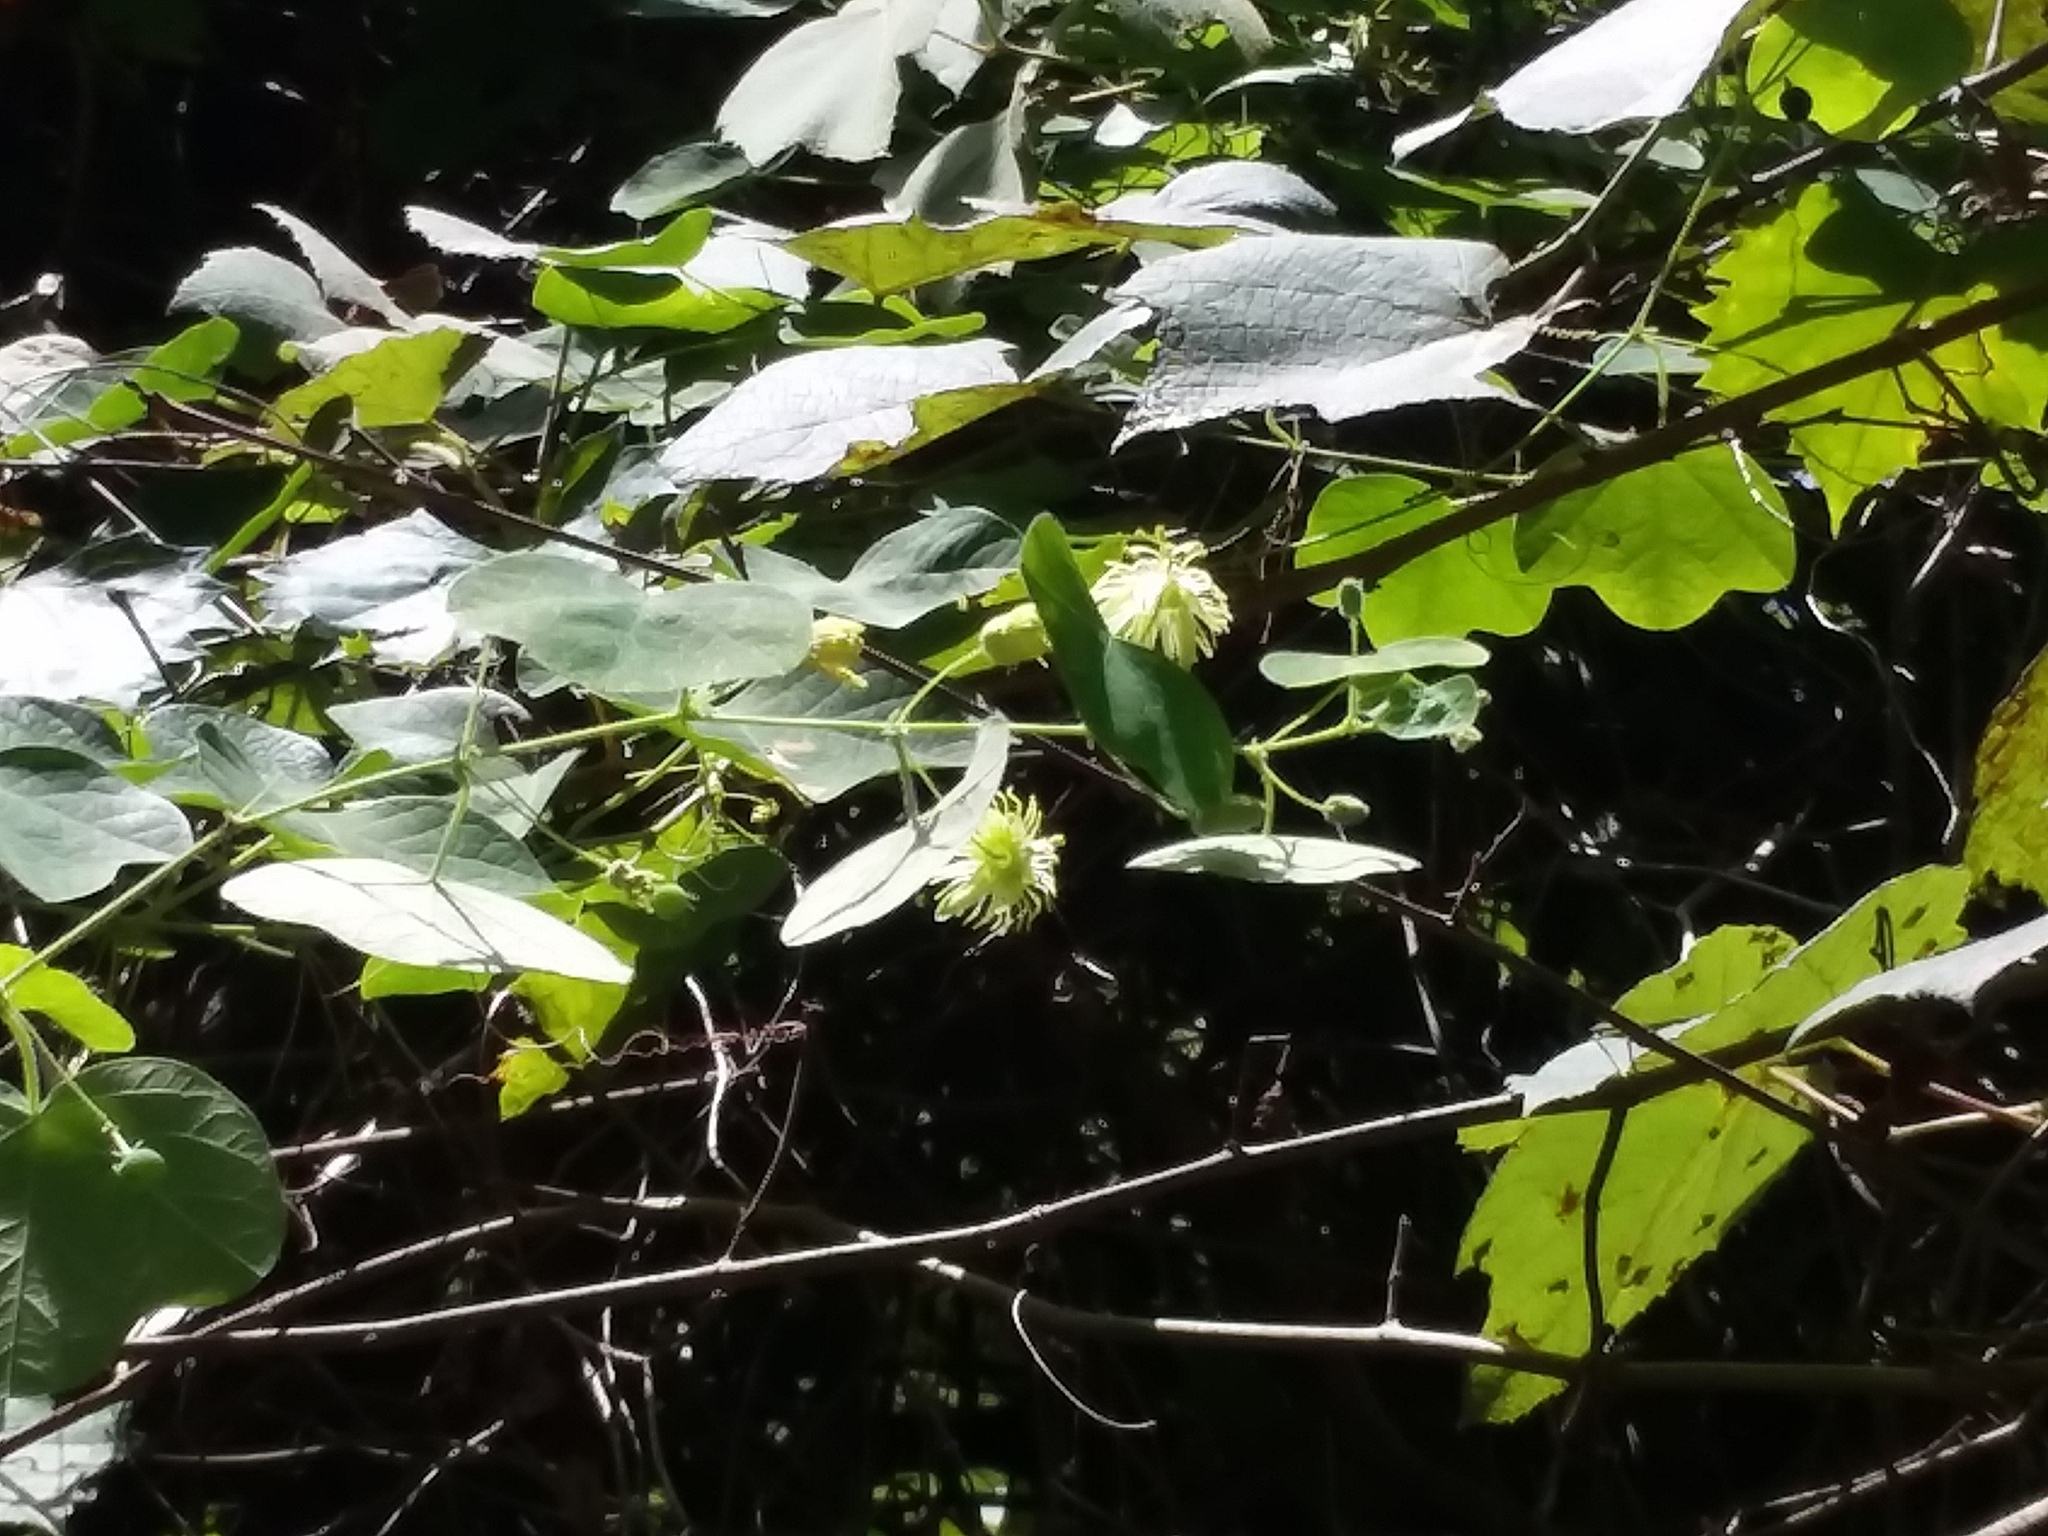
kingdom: Plantae
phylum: Tracheophyta
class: Magnoliopsida
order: Malpighiales
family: Passifloraceae
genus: Passiflora
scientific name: Passiflora lutea
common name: Yellow passionflower
